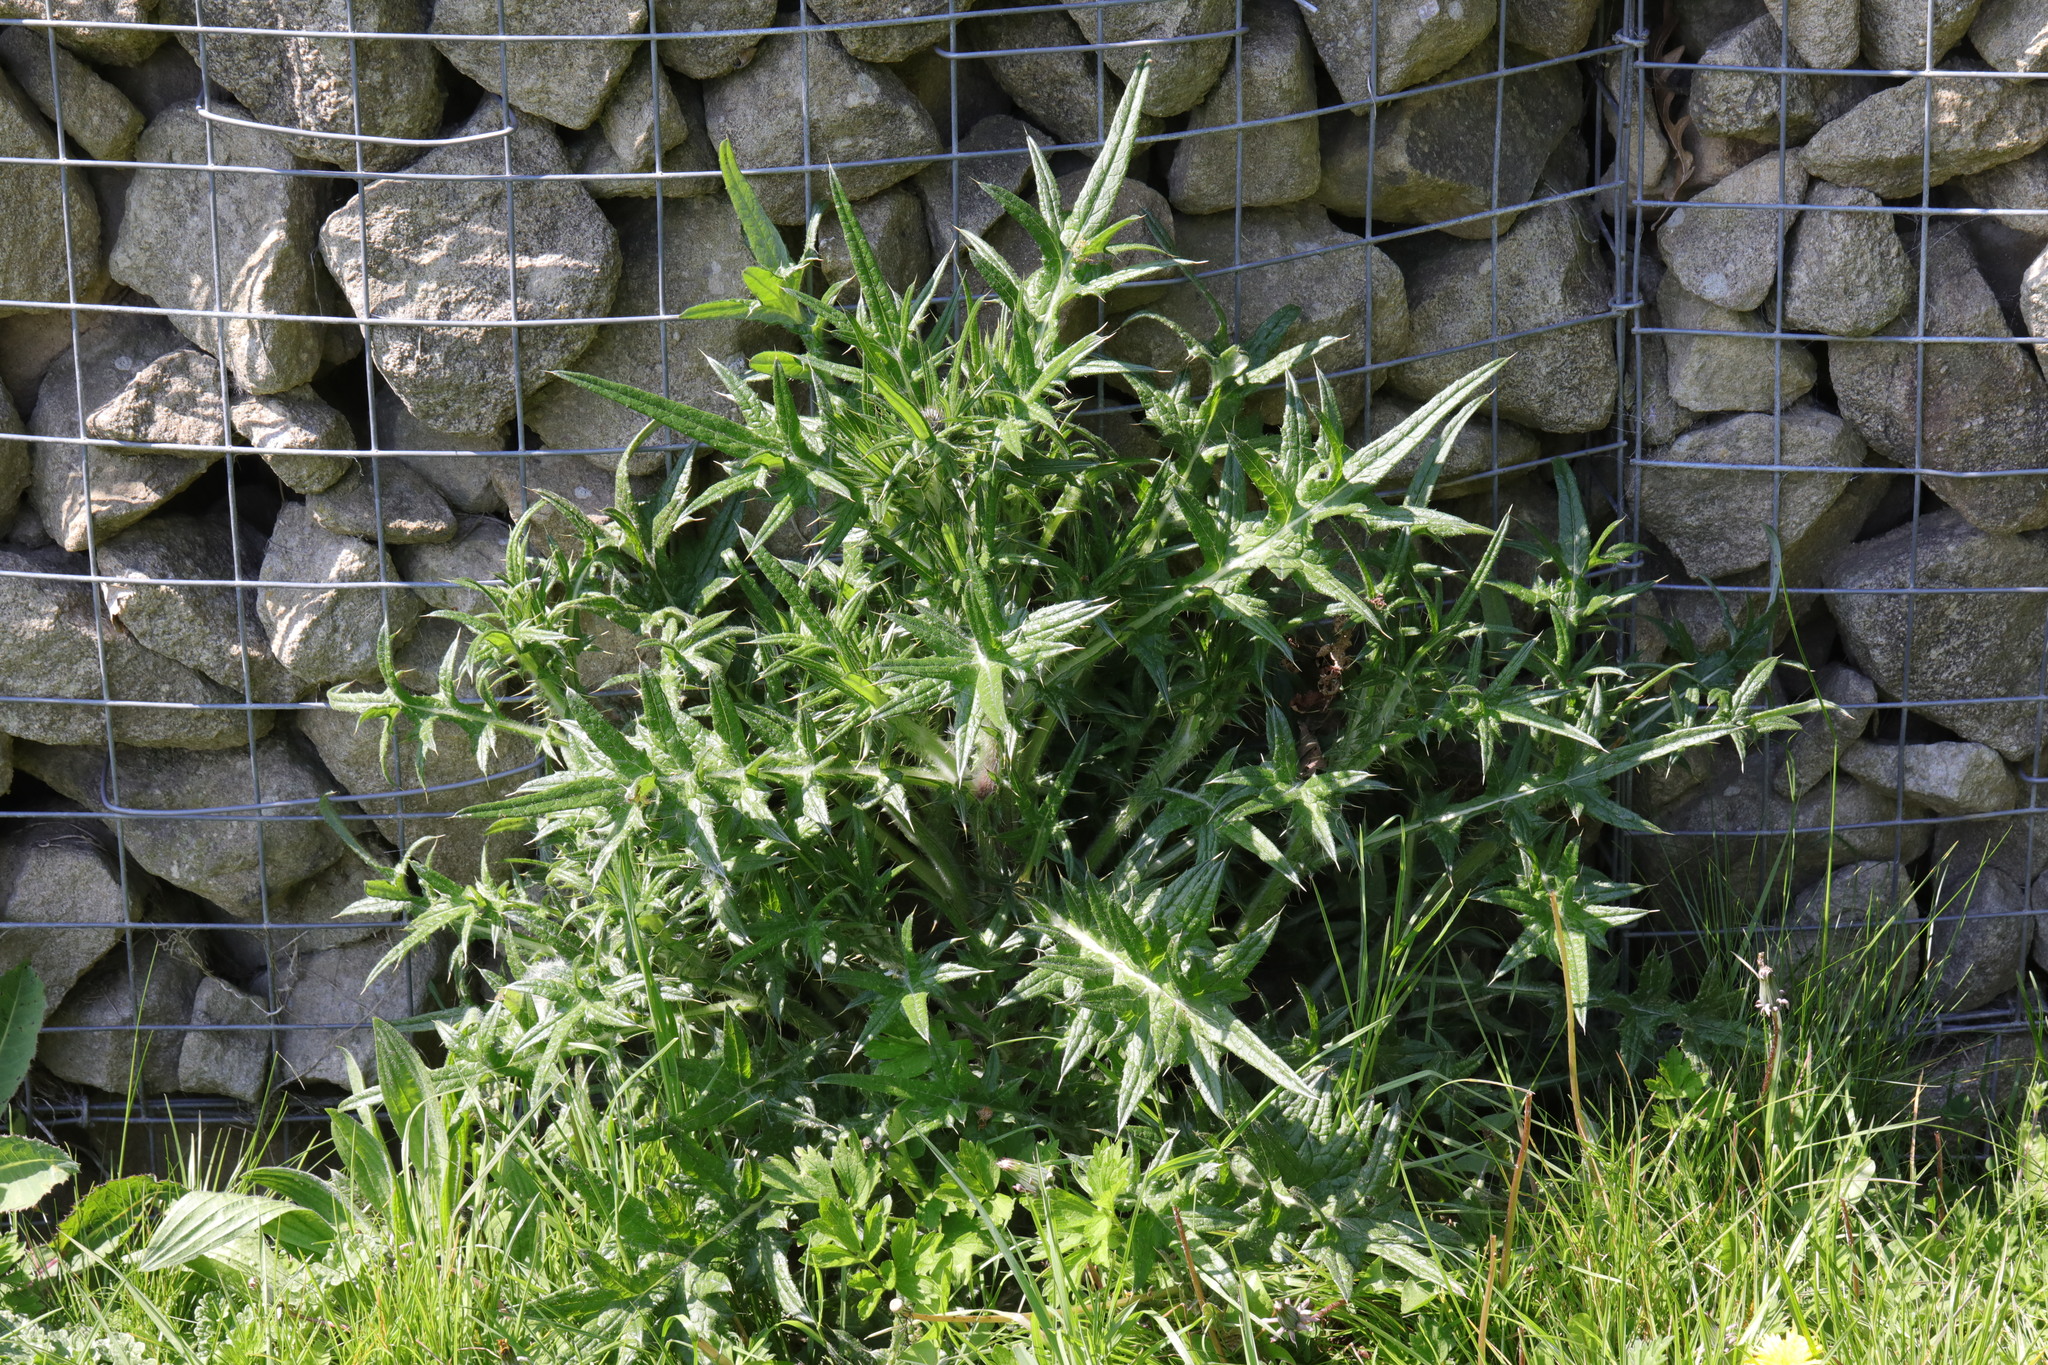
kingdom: Plantae
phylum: Tracheophyta
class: Magnoliopsida
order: Asterales
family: Asteraceae
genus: Cirsium
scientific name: Cirsium vulgare
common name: Bull thistle
